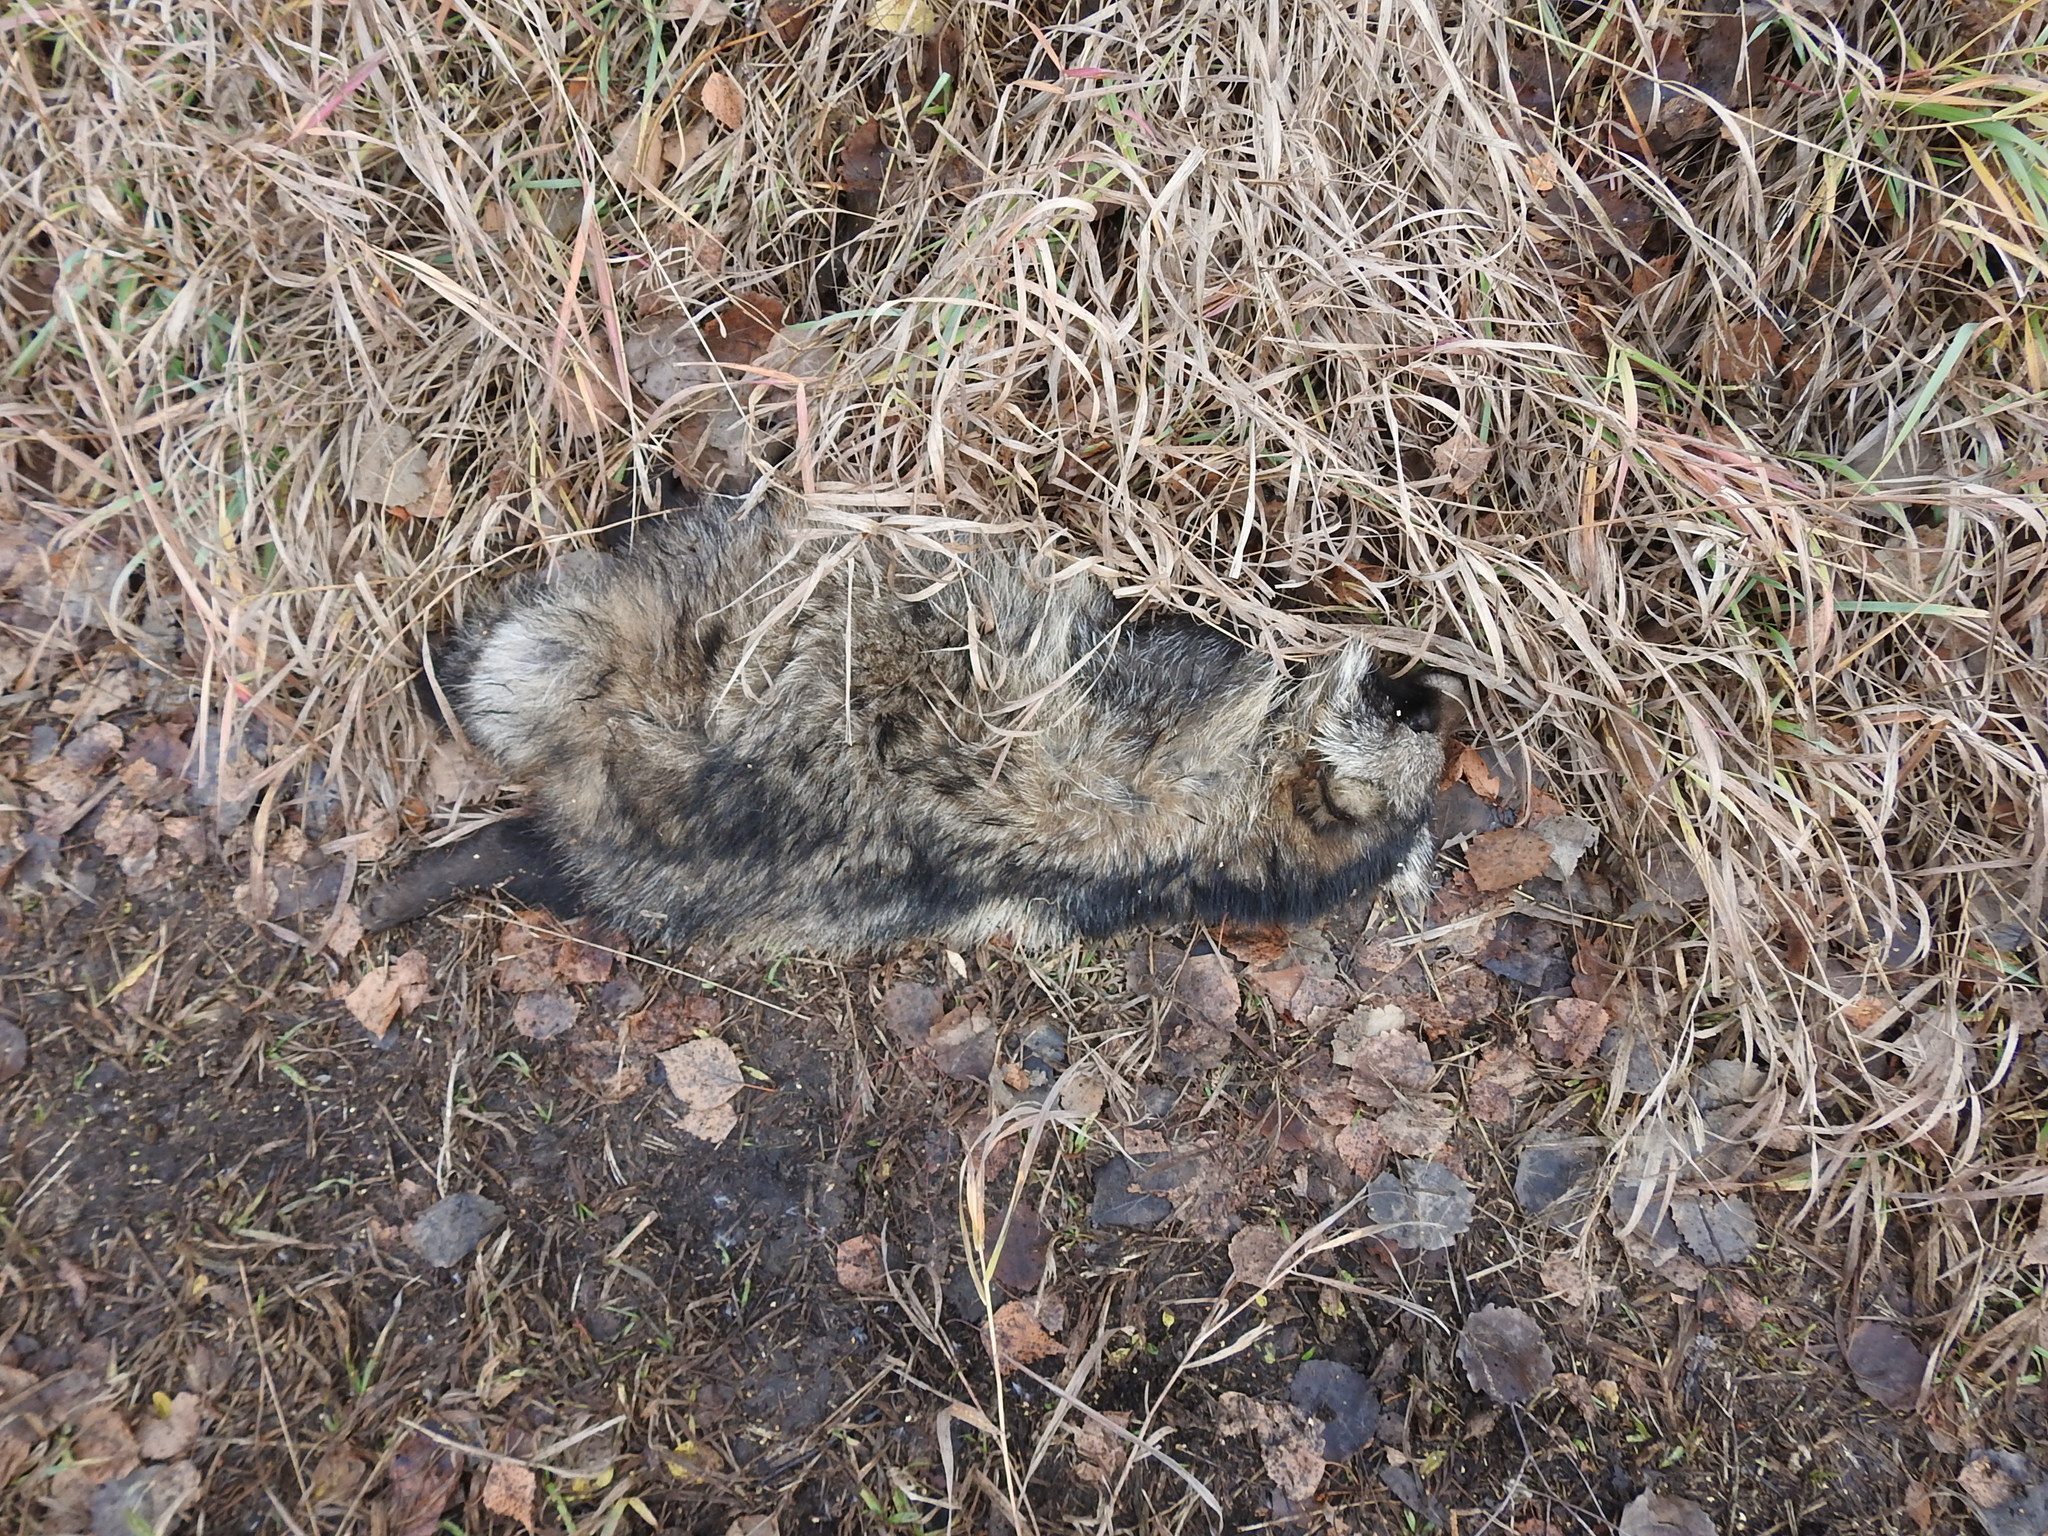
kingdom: Animalia
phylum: Chordata
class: Mammalia
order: Carnivora
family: Canidae
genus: Nyctereutes
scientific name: Nyctereutes procyonoides
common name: Raccoon dog
